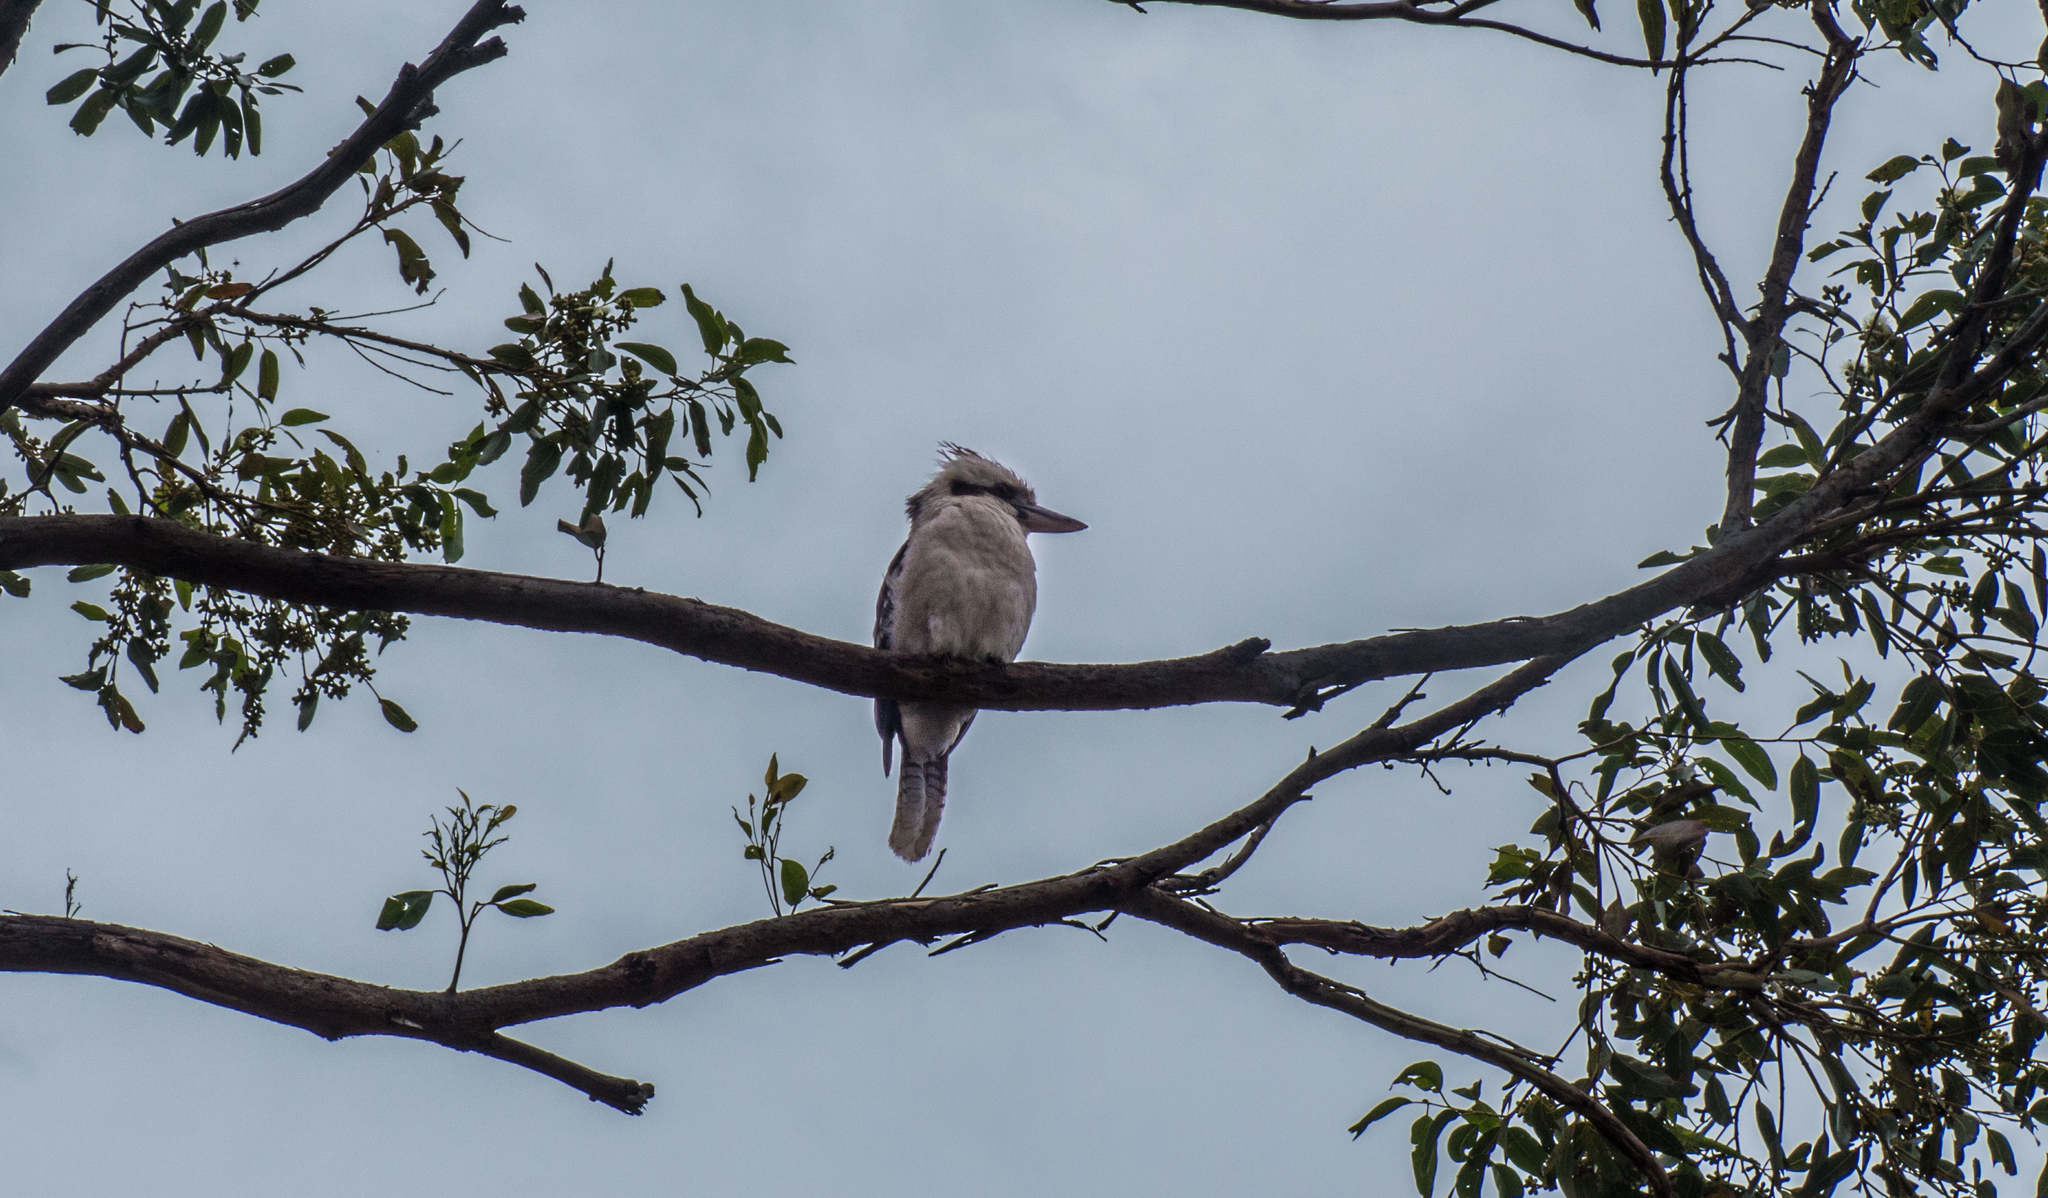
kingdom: Animalia
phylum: Chordata
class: Aves
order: Coraciiformes
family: Alcedinidae
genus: Dacelo
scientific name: Dacelo novaeguineae
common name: Laughing kookaburra
